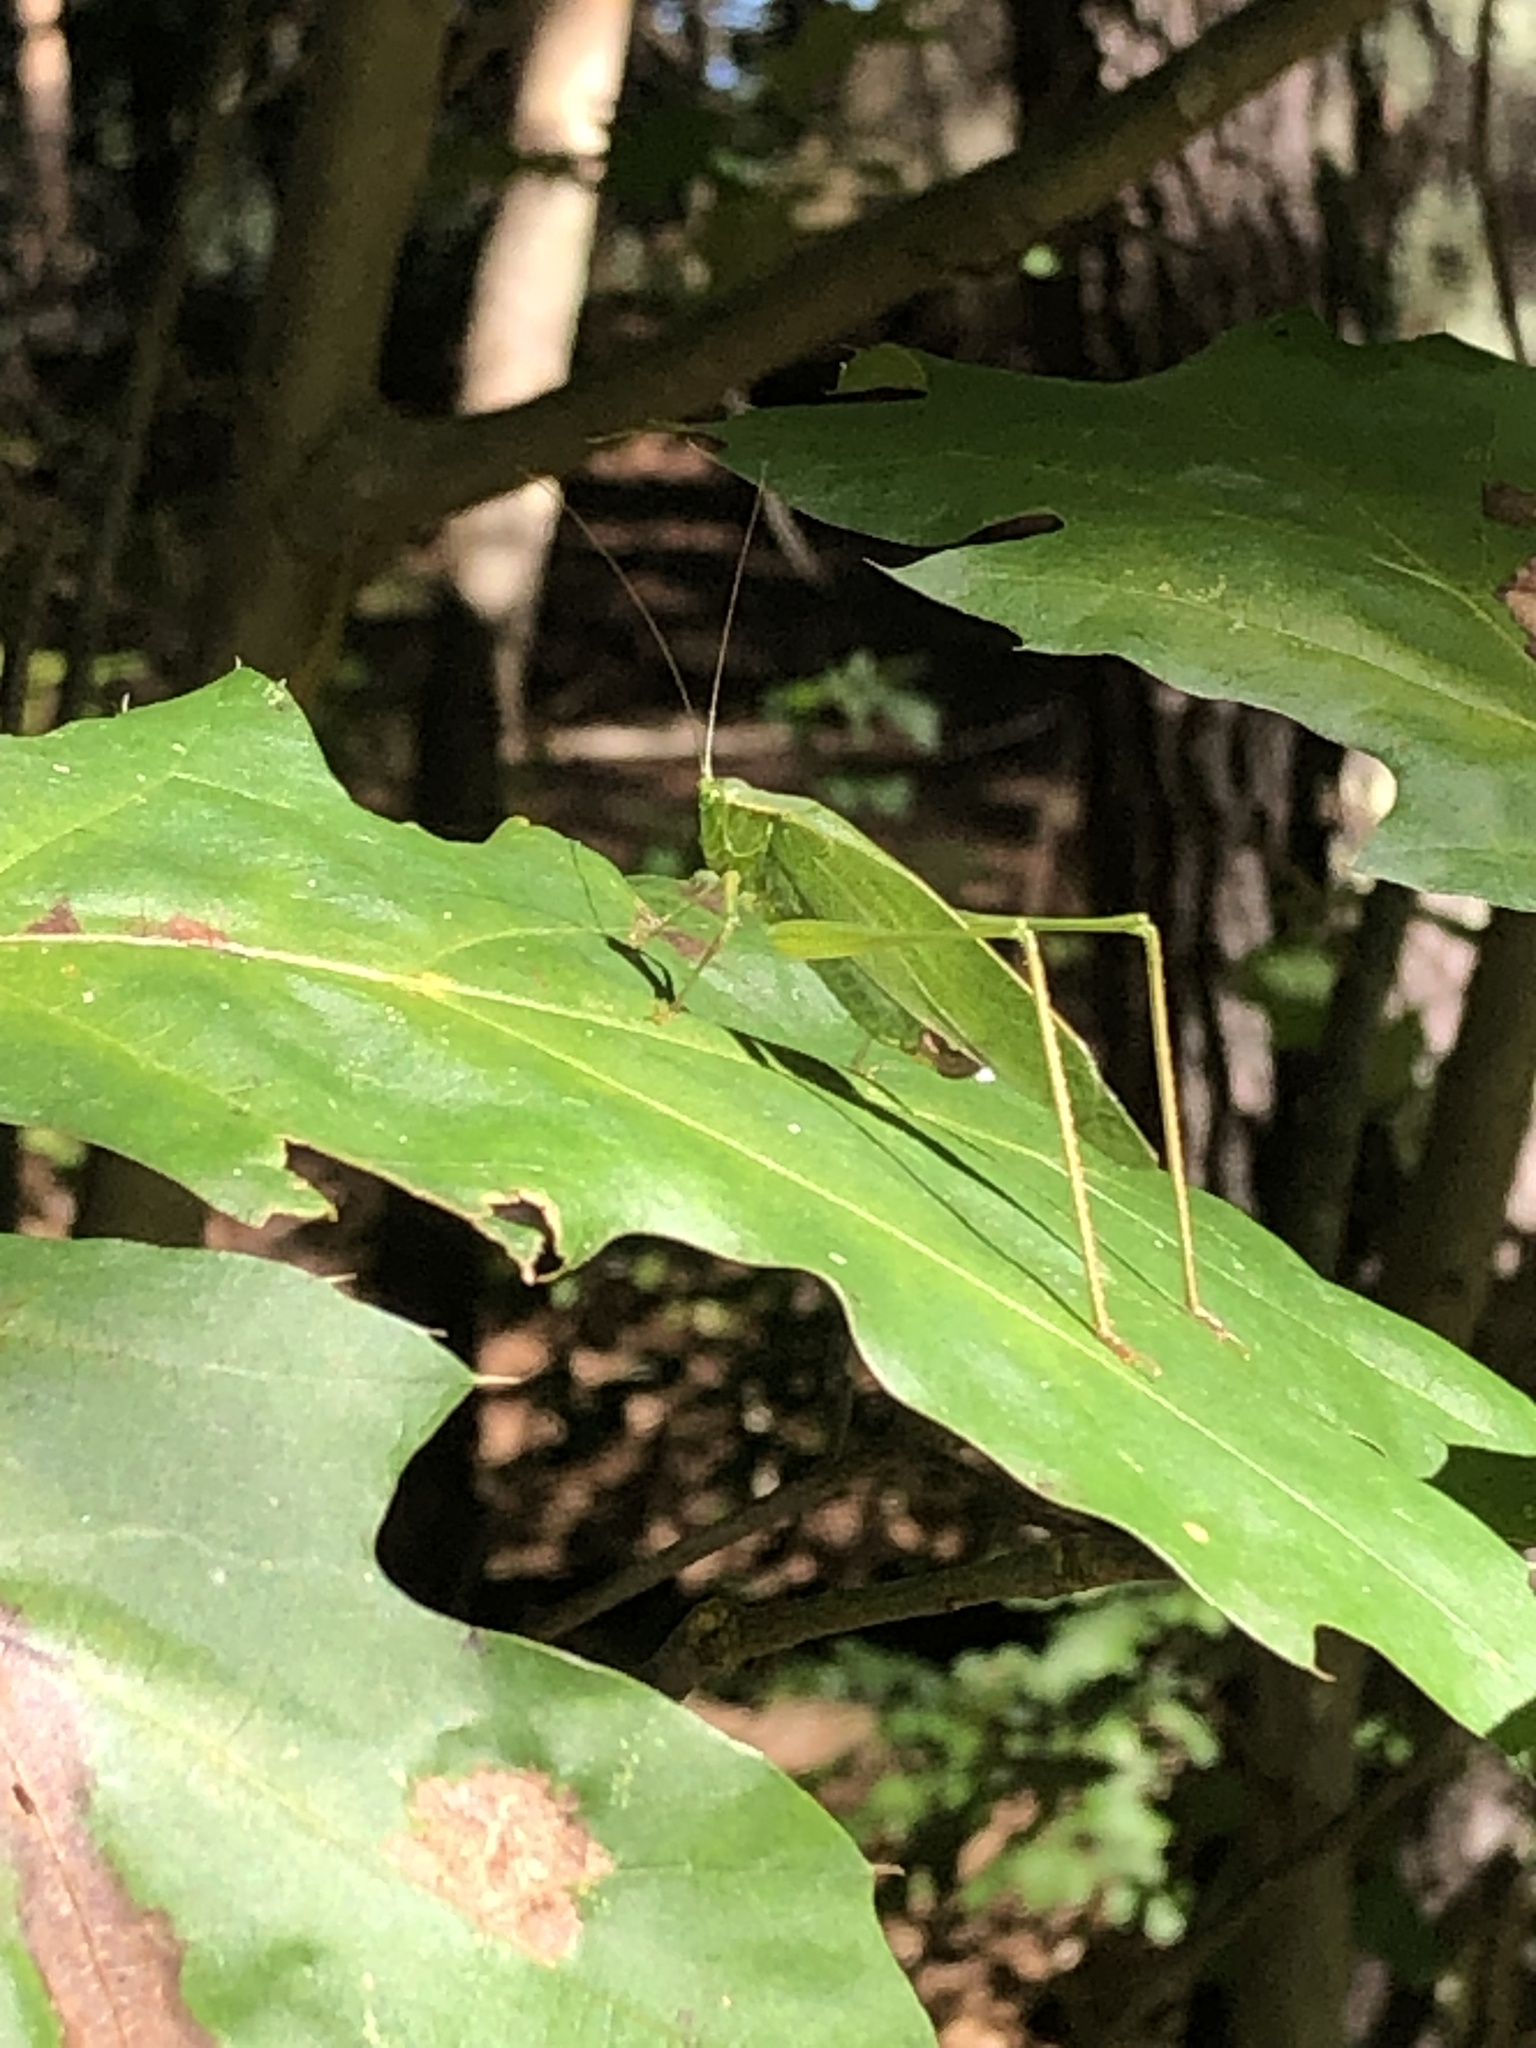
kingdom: Animalia
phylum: Arthropoda
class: Insecta
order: Orthoptera
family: Tettigoniidae
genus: Scudderia
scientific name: Scudderia furcata
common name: Fork-tailed bush katydid
